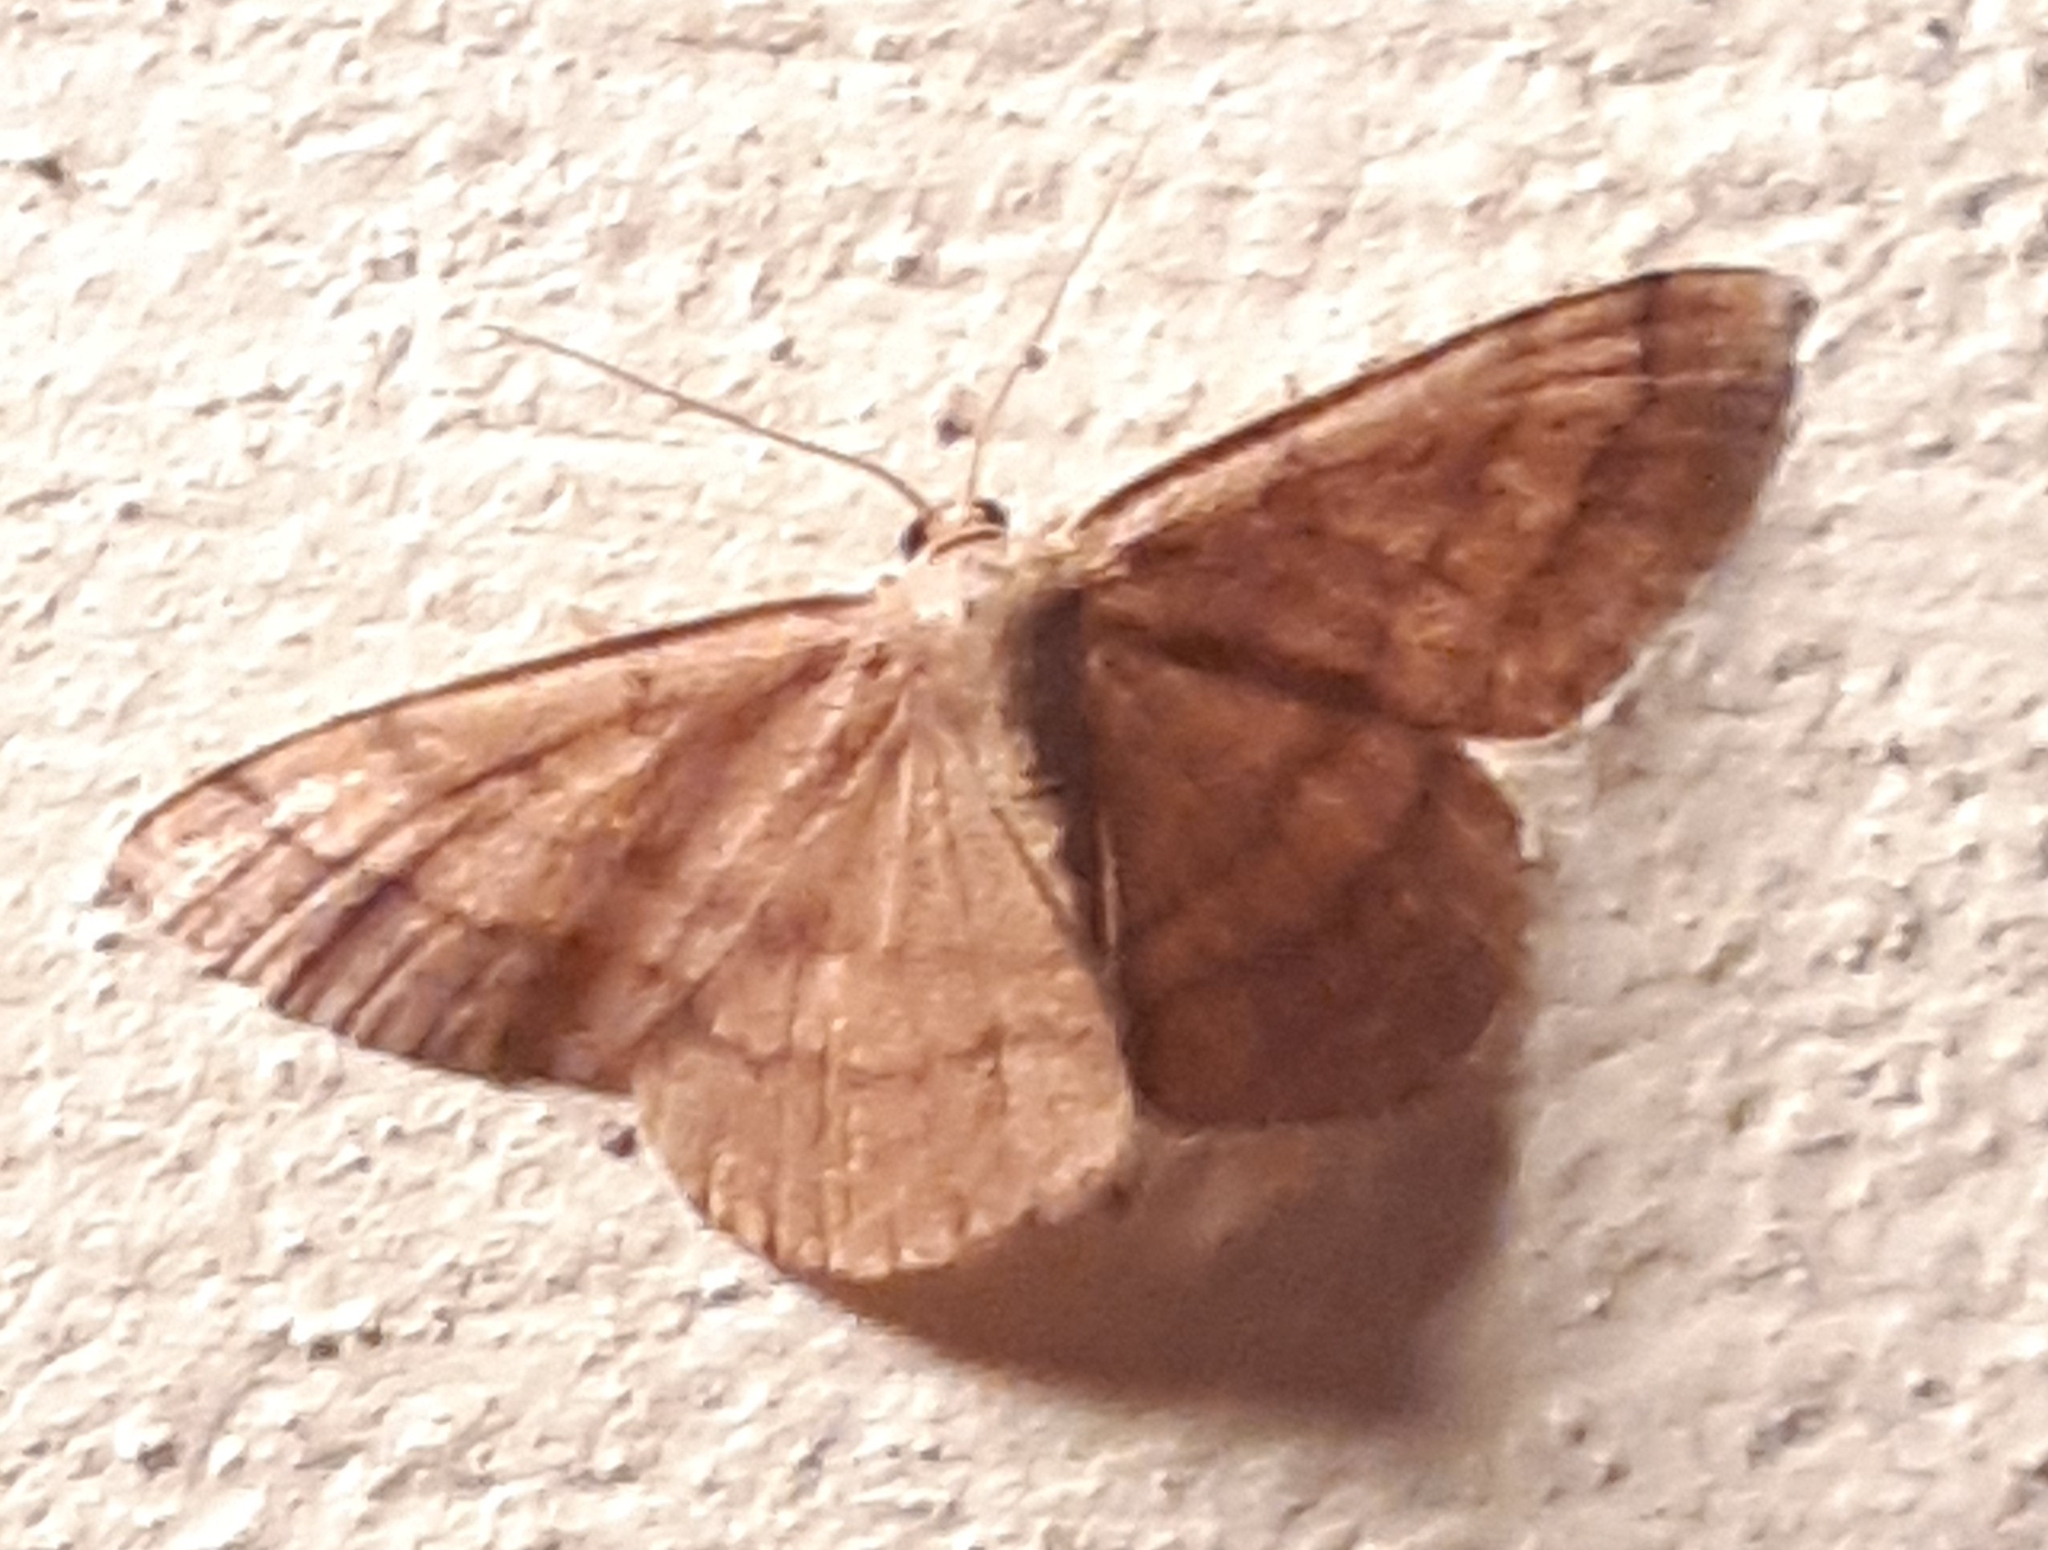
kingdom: Animalia
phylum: Arthropoda
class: Insecta
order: Lepidoptera
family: Geometridae
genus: Scopula
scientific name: Scopula rubiginata
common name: Tawny wave
